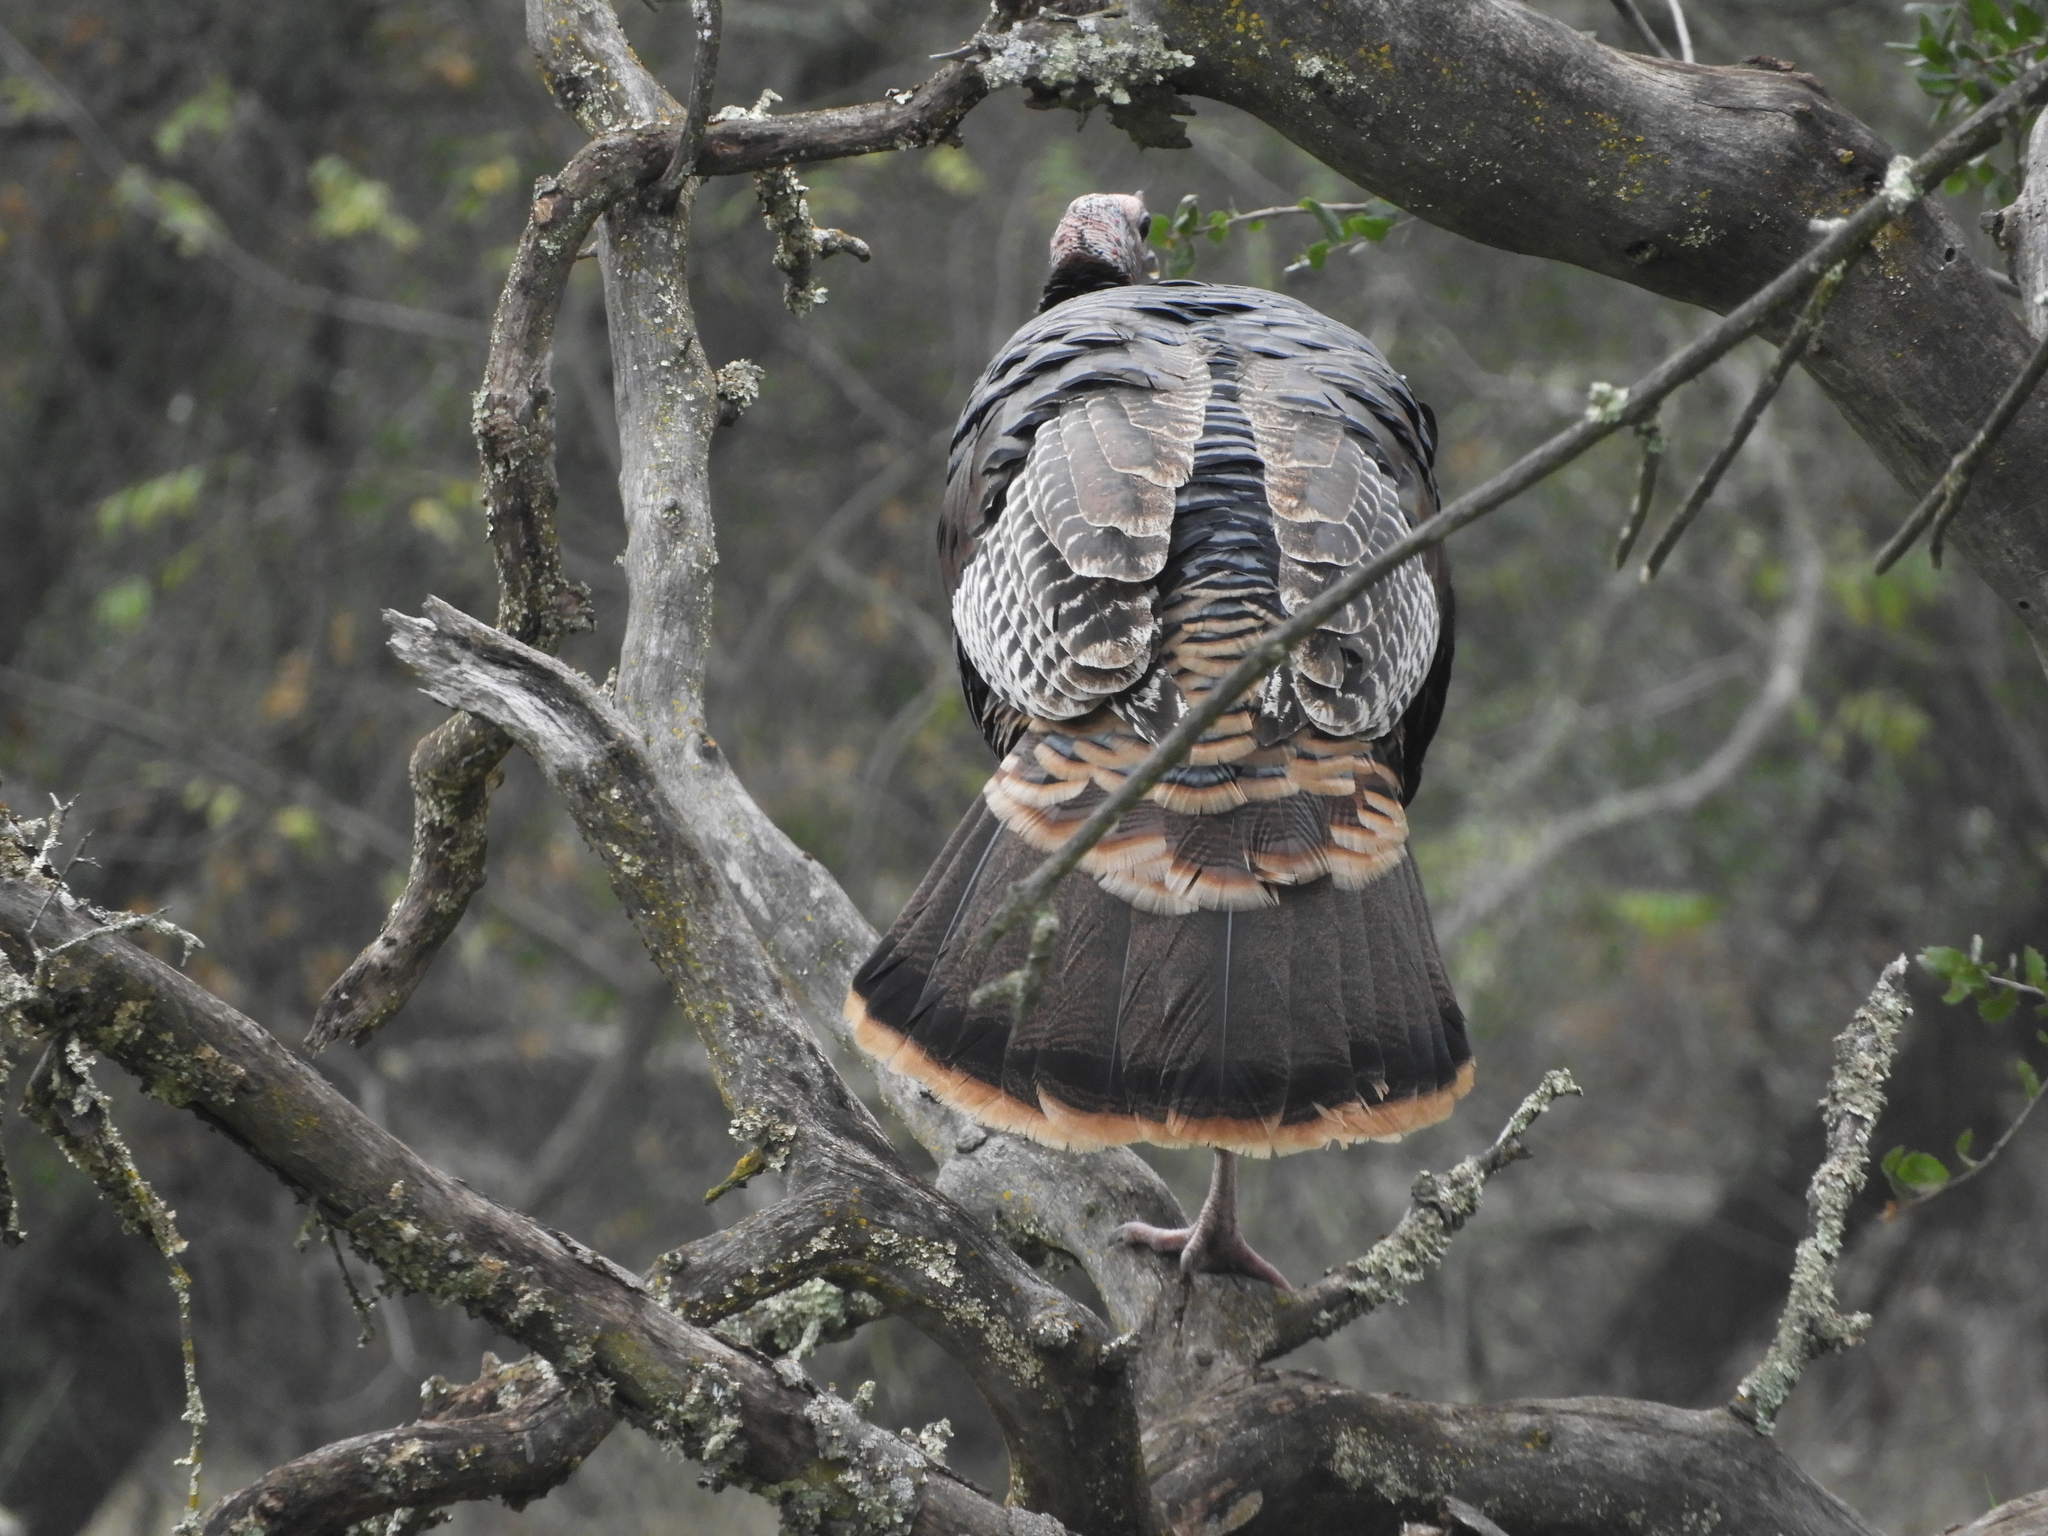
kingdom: Animalia
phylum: Chordata
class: Aves
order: Galliformes
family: Phasianidae
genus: Meleagris
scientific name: Meleagris gallopavo
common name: Wild turkey
